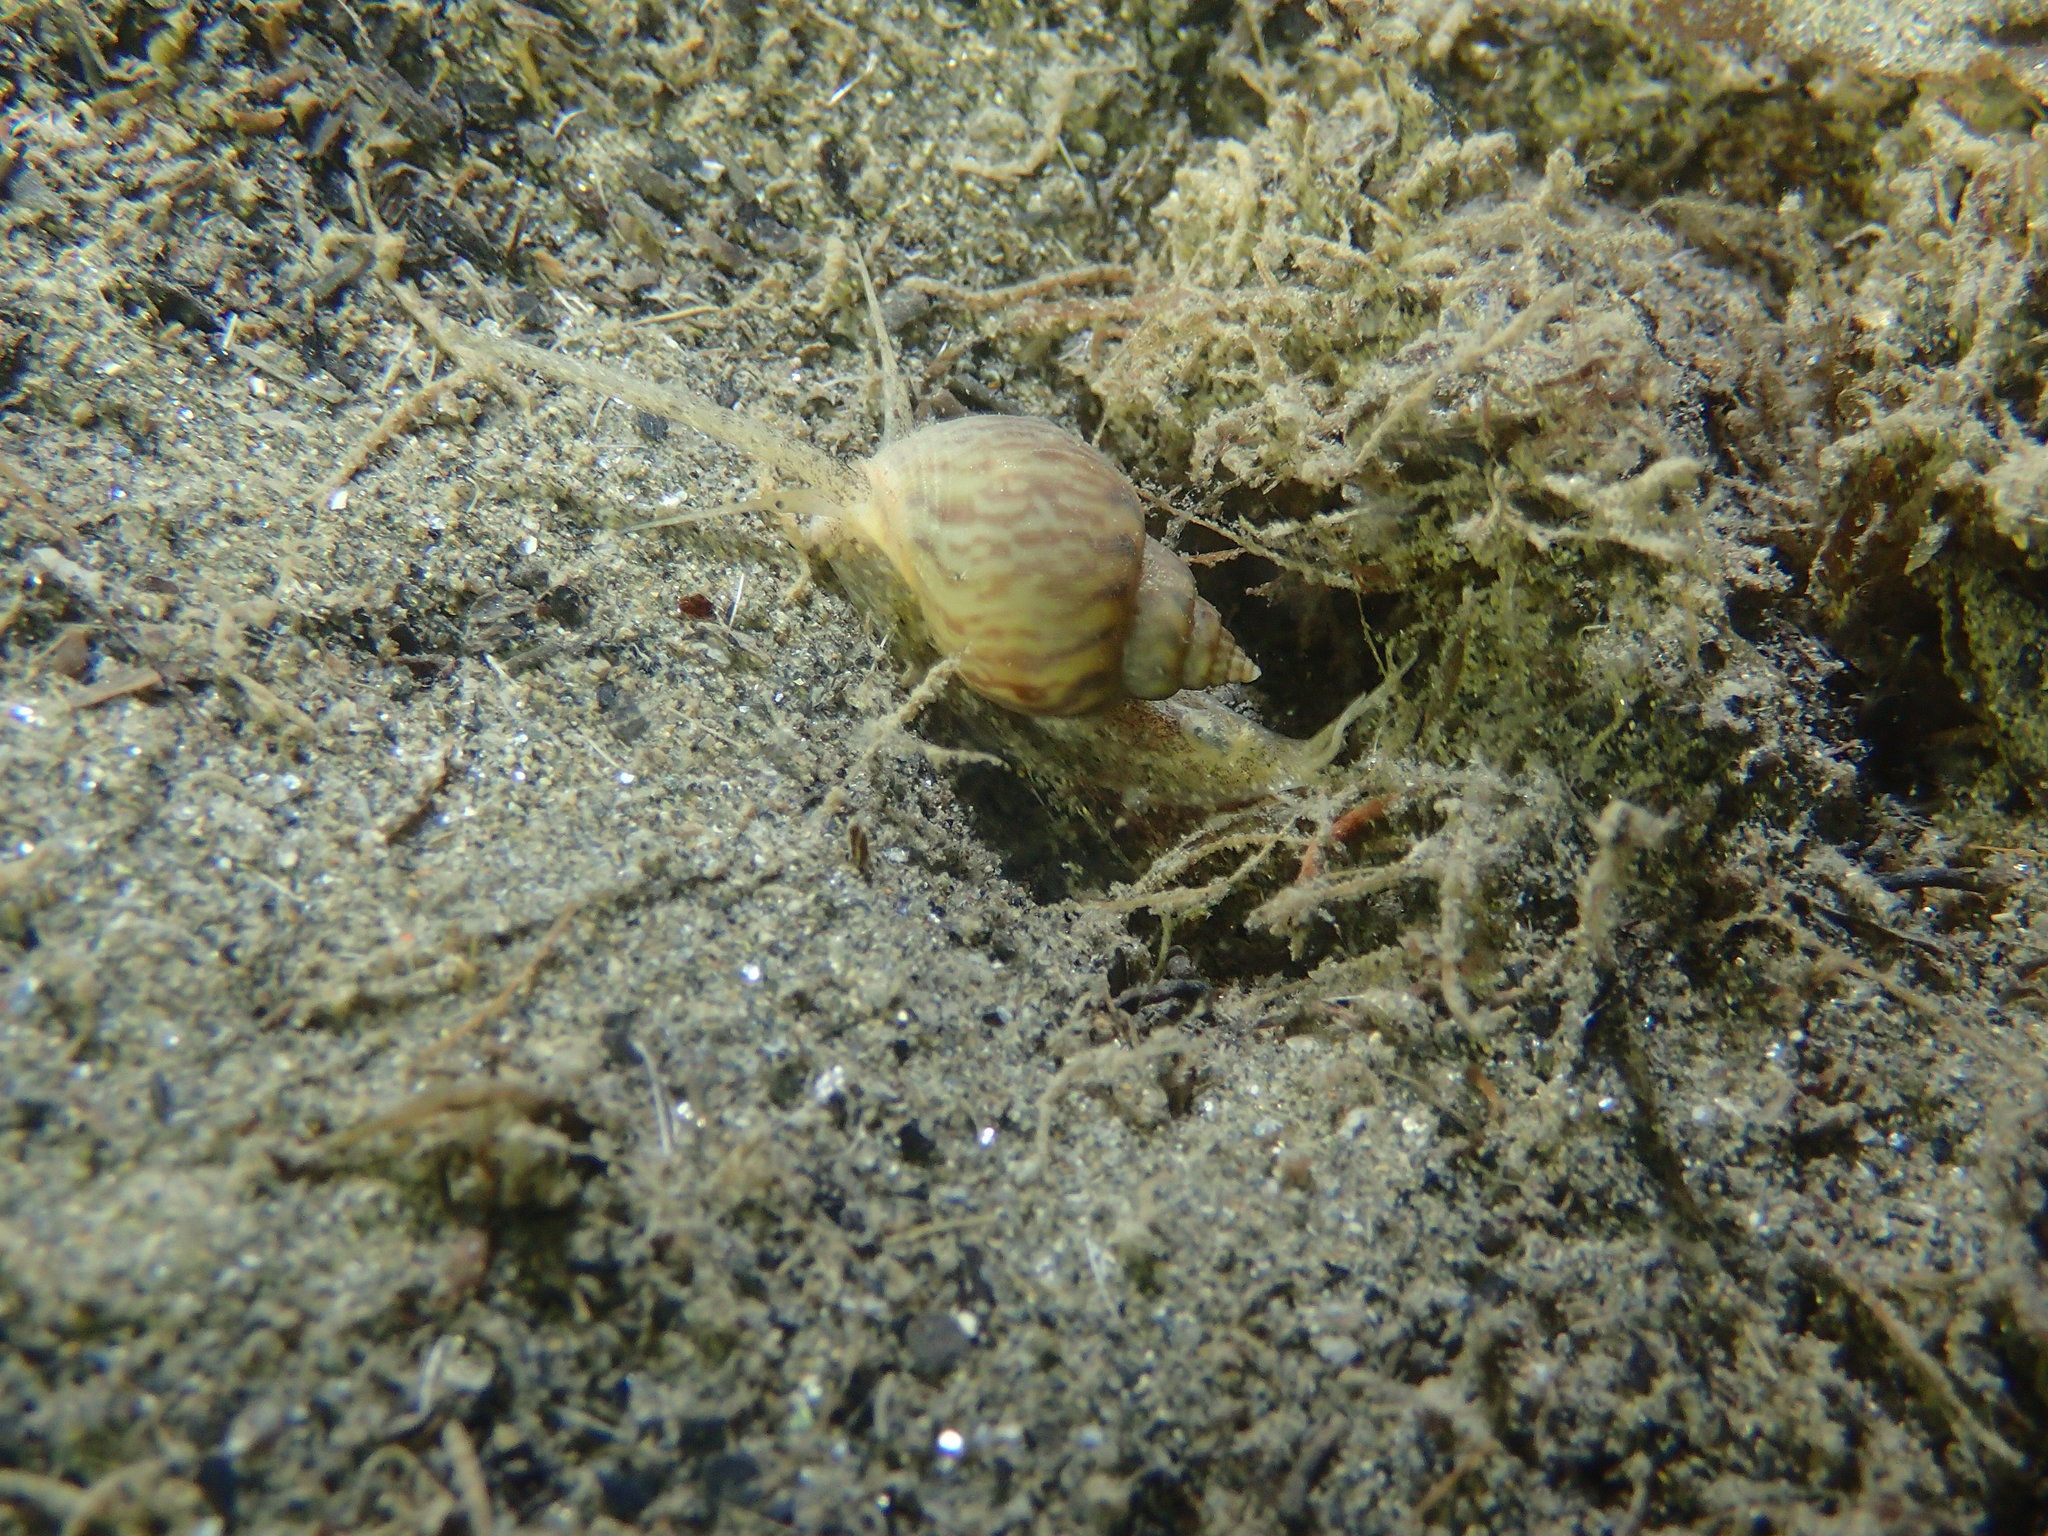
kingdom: Animalia
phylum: Mollusca
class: Gastropoda
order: Neogastropoda
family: Nassariidae
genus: Tritia
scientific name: Tritia mutabilis
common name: Mutable nassa
